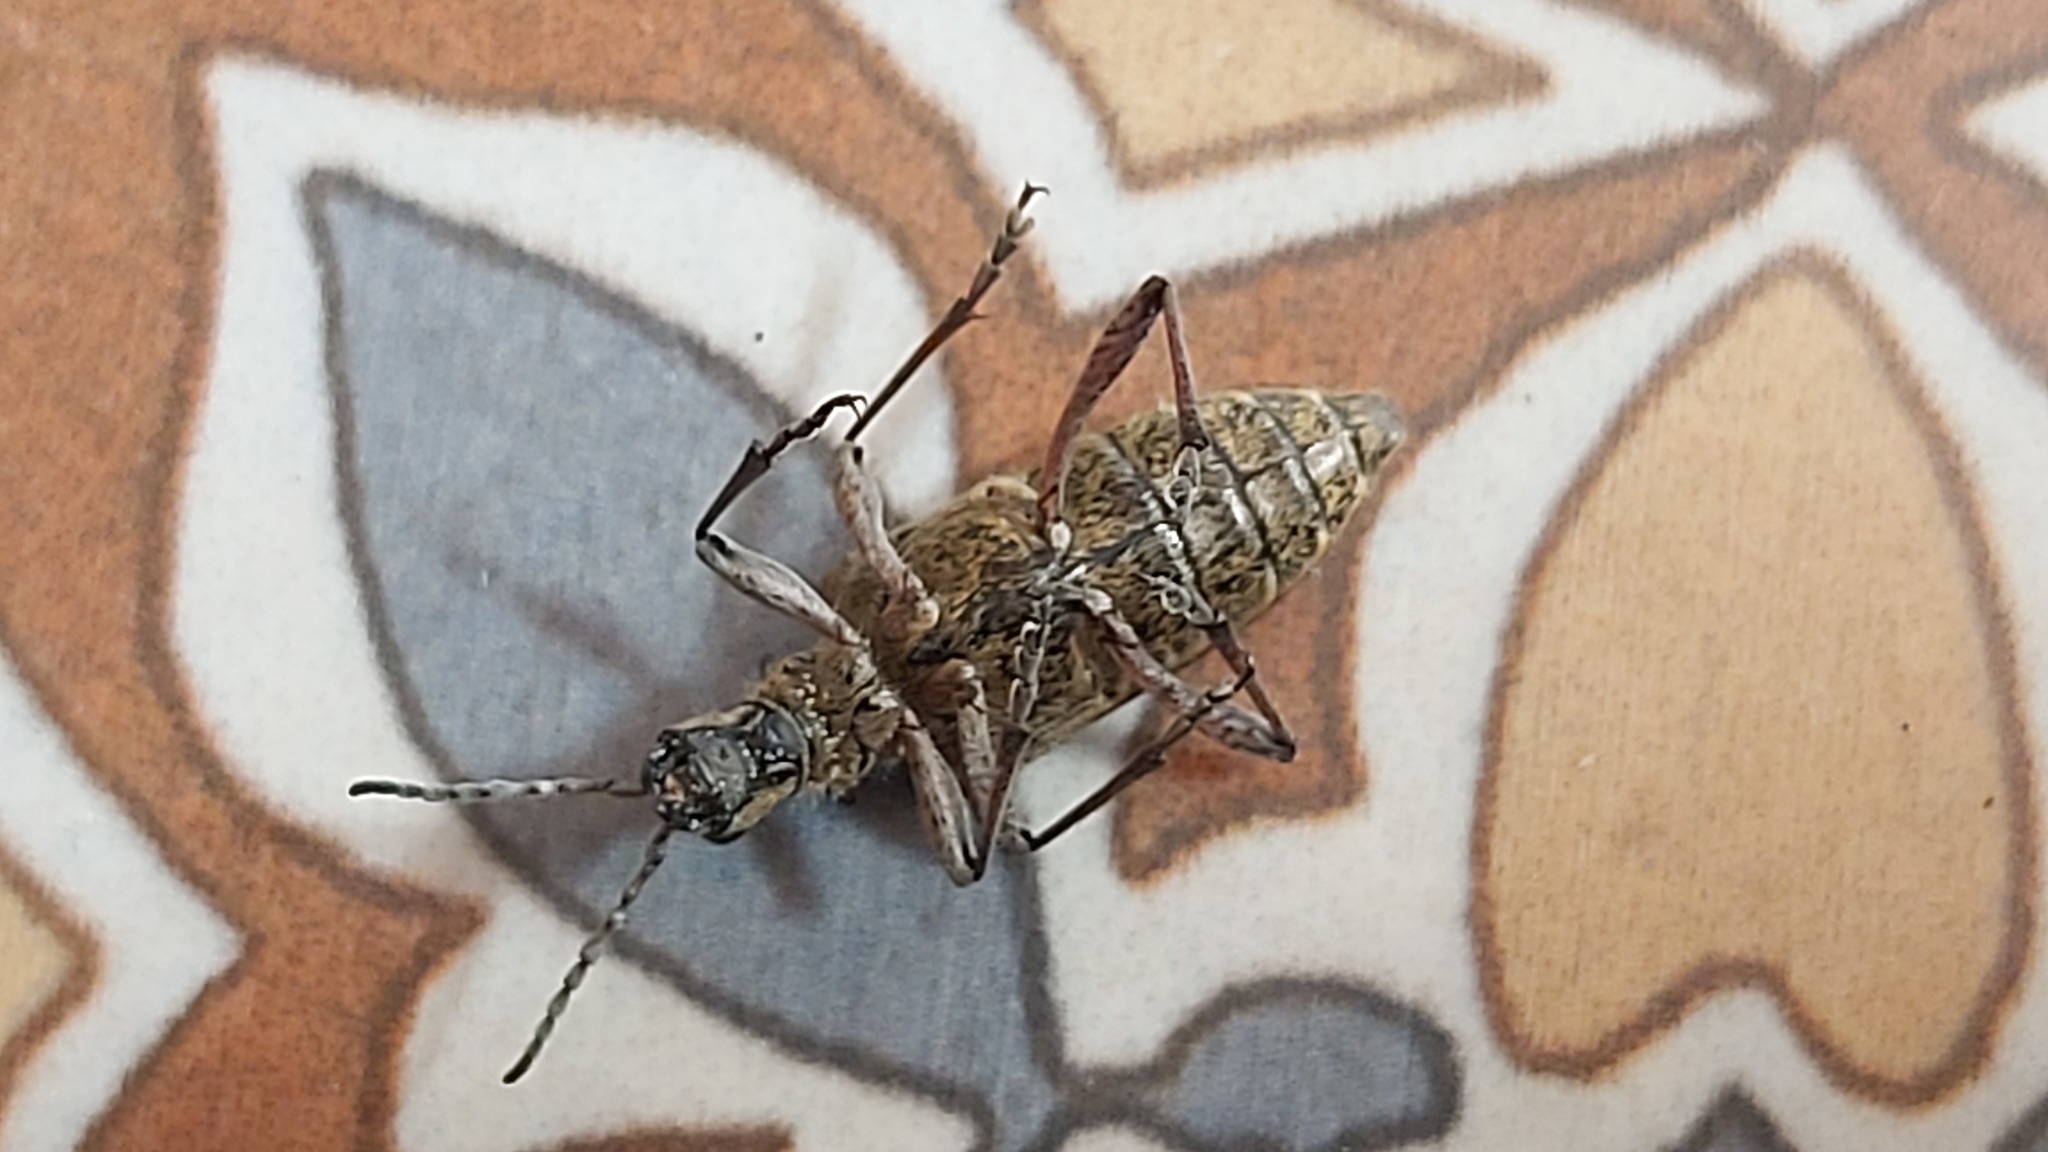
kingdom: Animalia
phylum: Arthropoda
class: Insecta
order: Coleoptera
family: Cerambycidae
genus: Rhagium
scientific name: Rhagium inquisitor
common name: Ribbed pine borer
